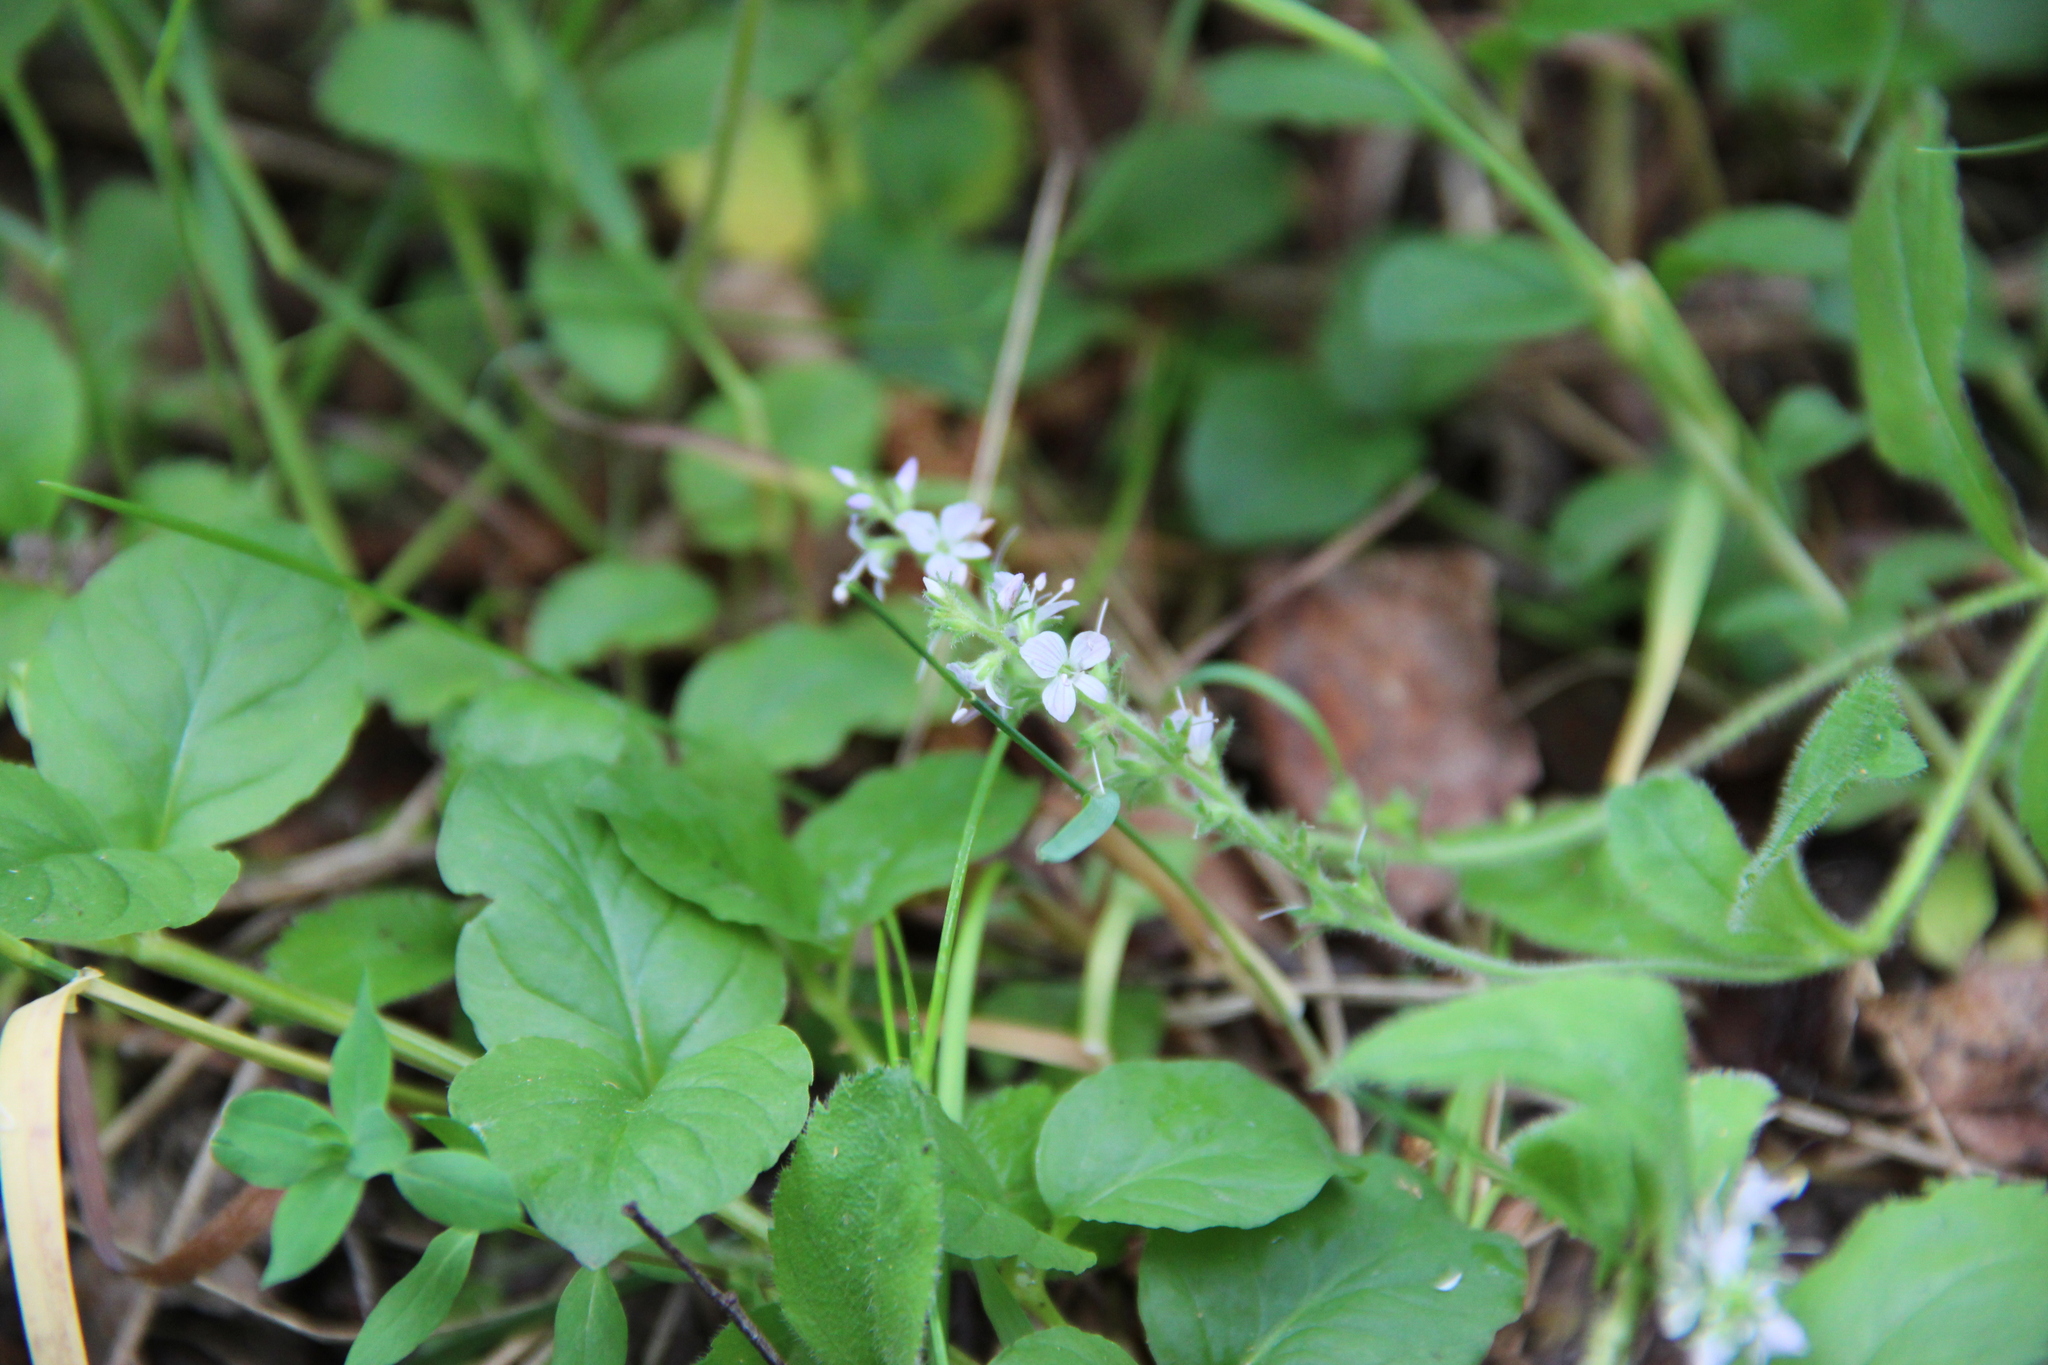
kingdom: Plantae
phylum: Tracheophyta
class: Magnoliopsida
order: Lamiales
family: Plantaginaceae
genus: Veronica
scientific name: Veronica officinalis
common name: Common speedwell
